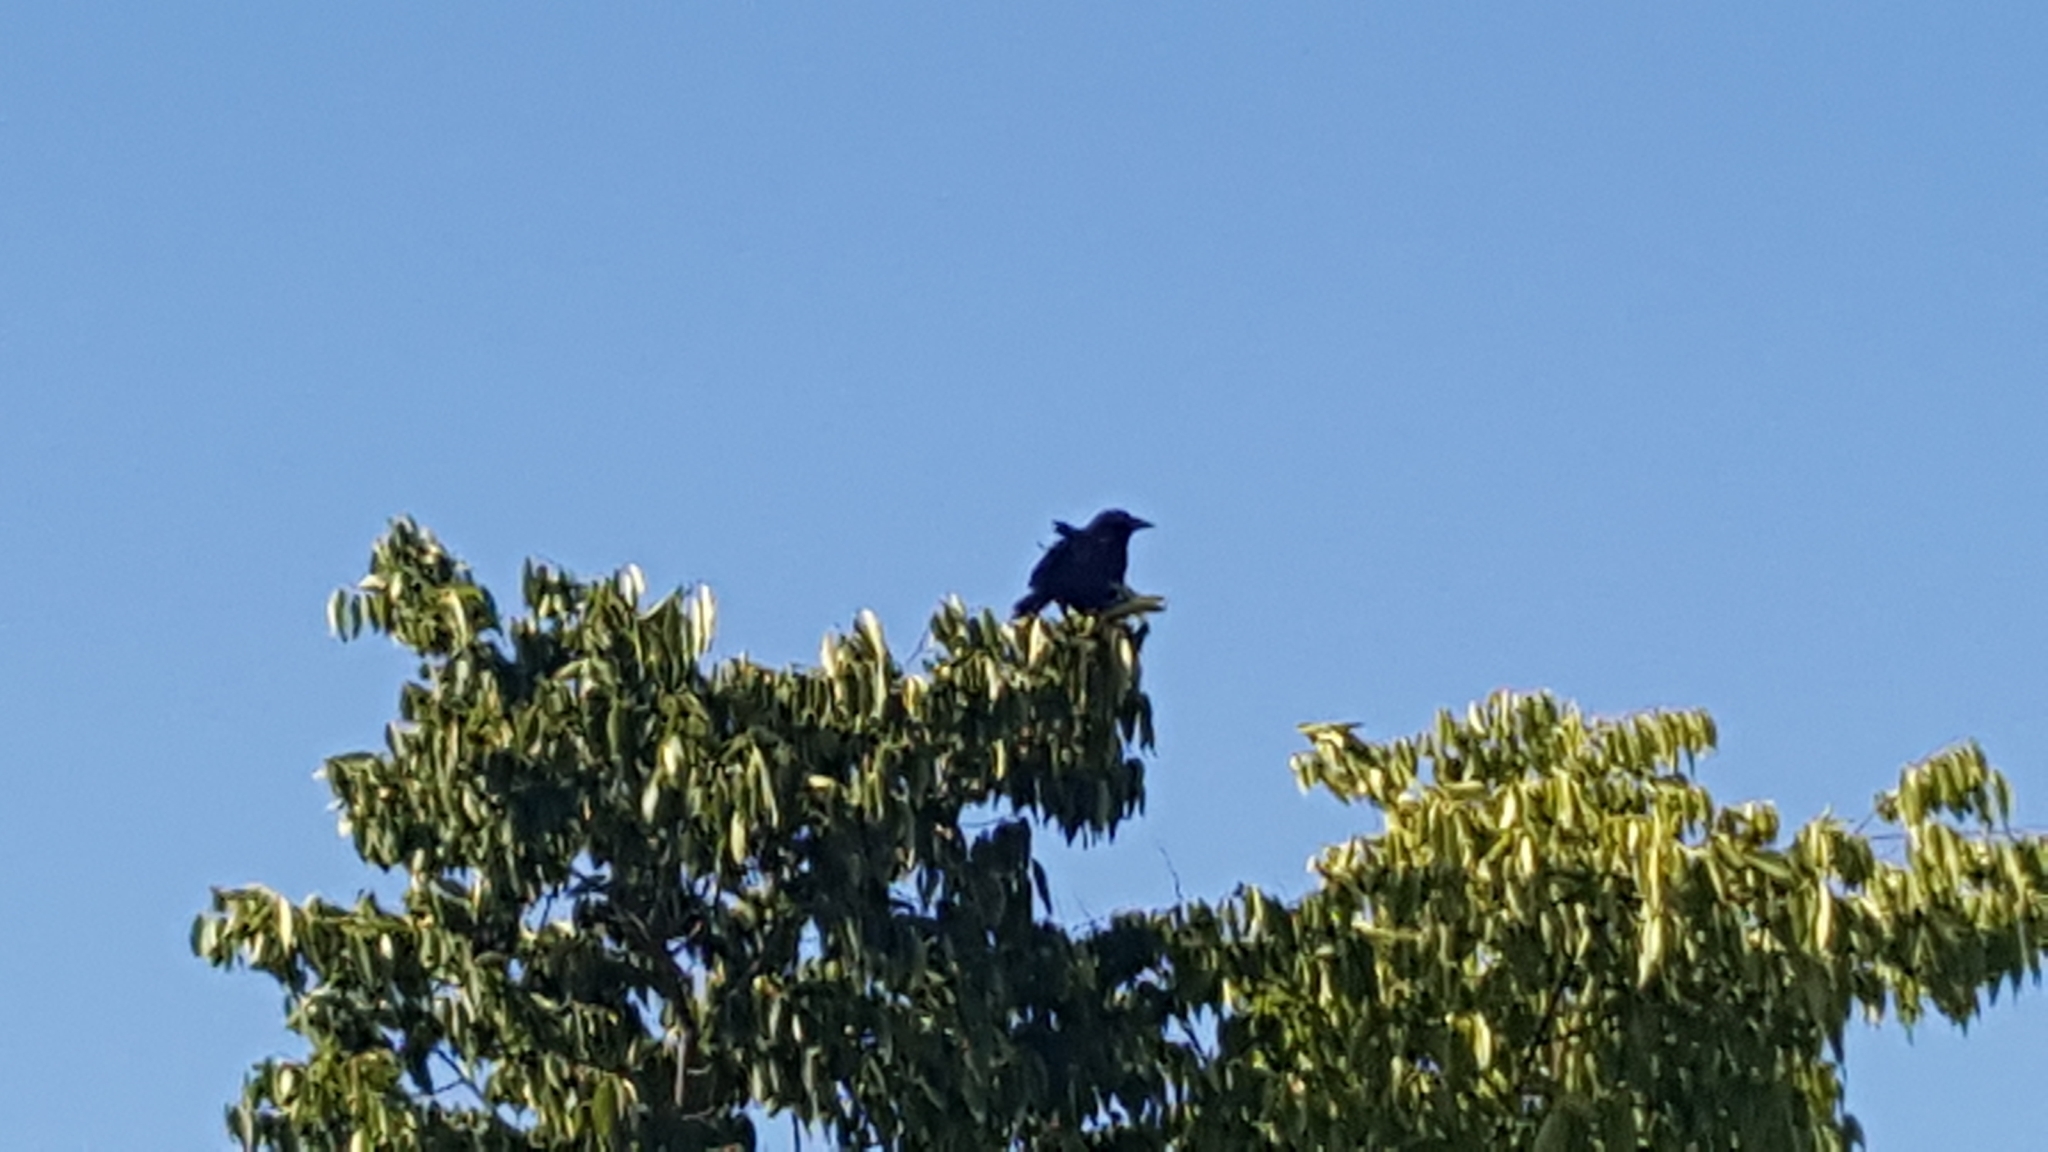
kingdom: Animalia
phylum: Chordata
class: Aves
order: Passeriformes
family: Corvidae
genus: Corvus
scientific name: Corvus brachyrhynchos
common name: American crow
